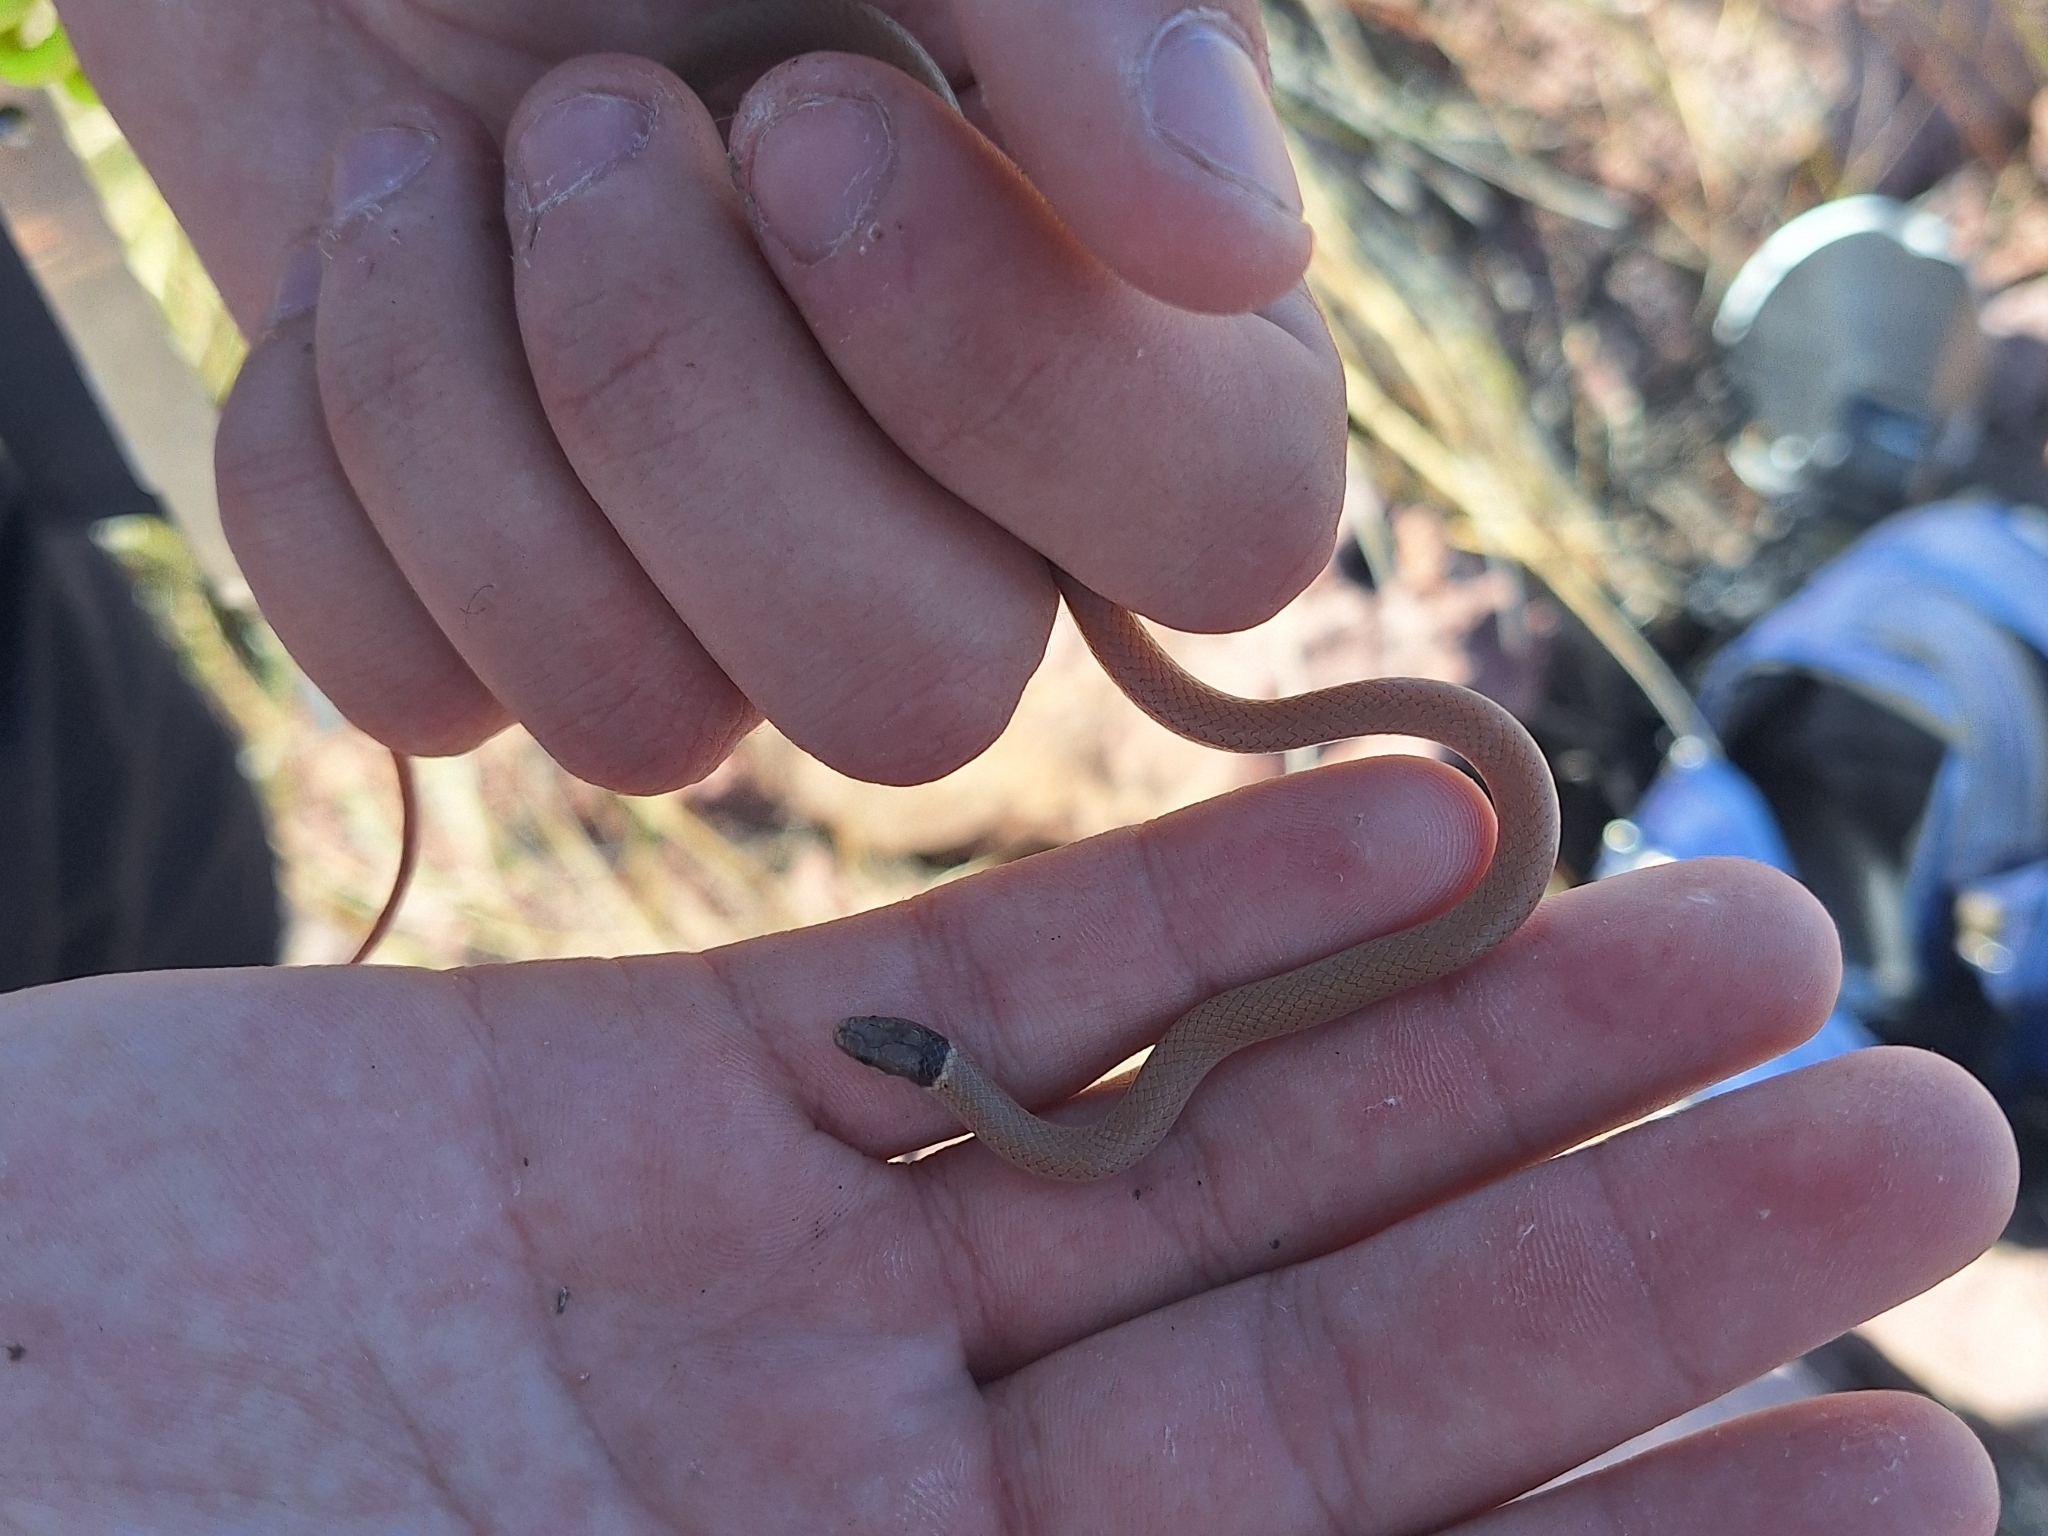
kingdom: Animalia
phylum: Chordata
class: Squamata
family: Colubridae
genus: Tantilla
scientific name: Tantilla yaquia
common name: Yaqui black-headed snake
